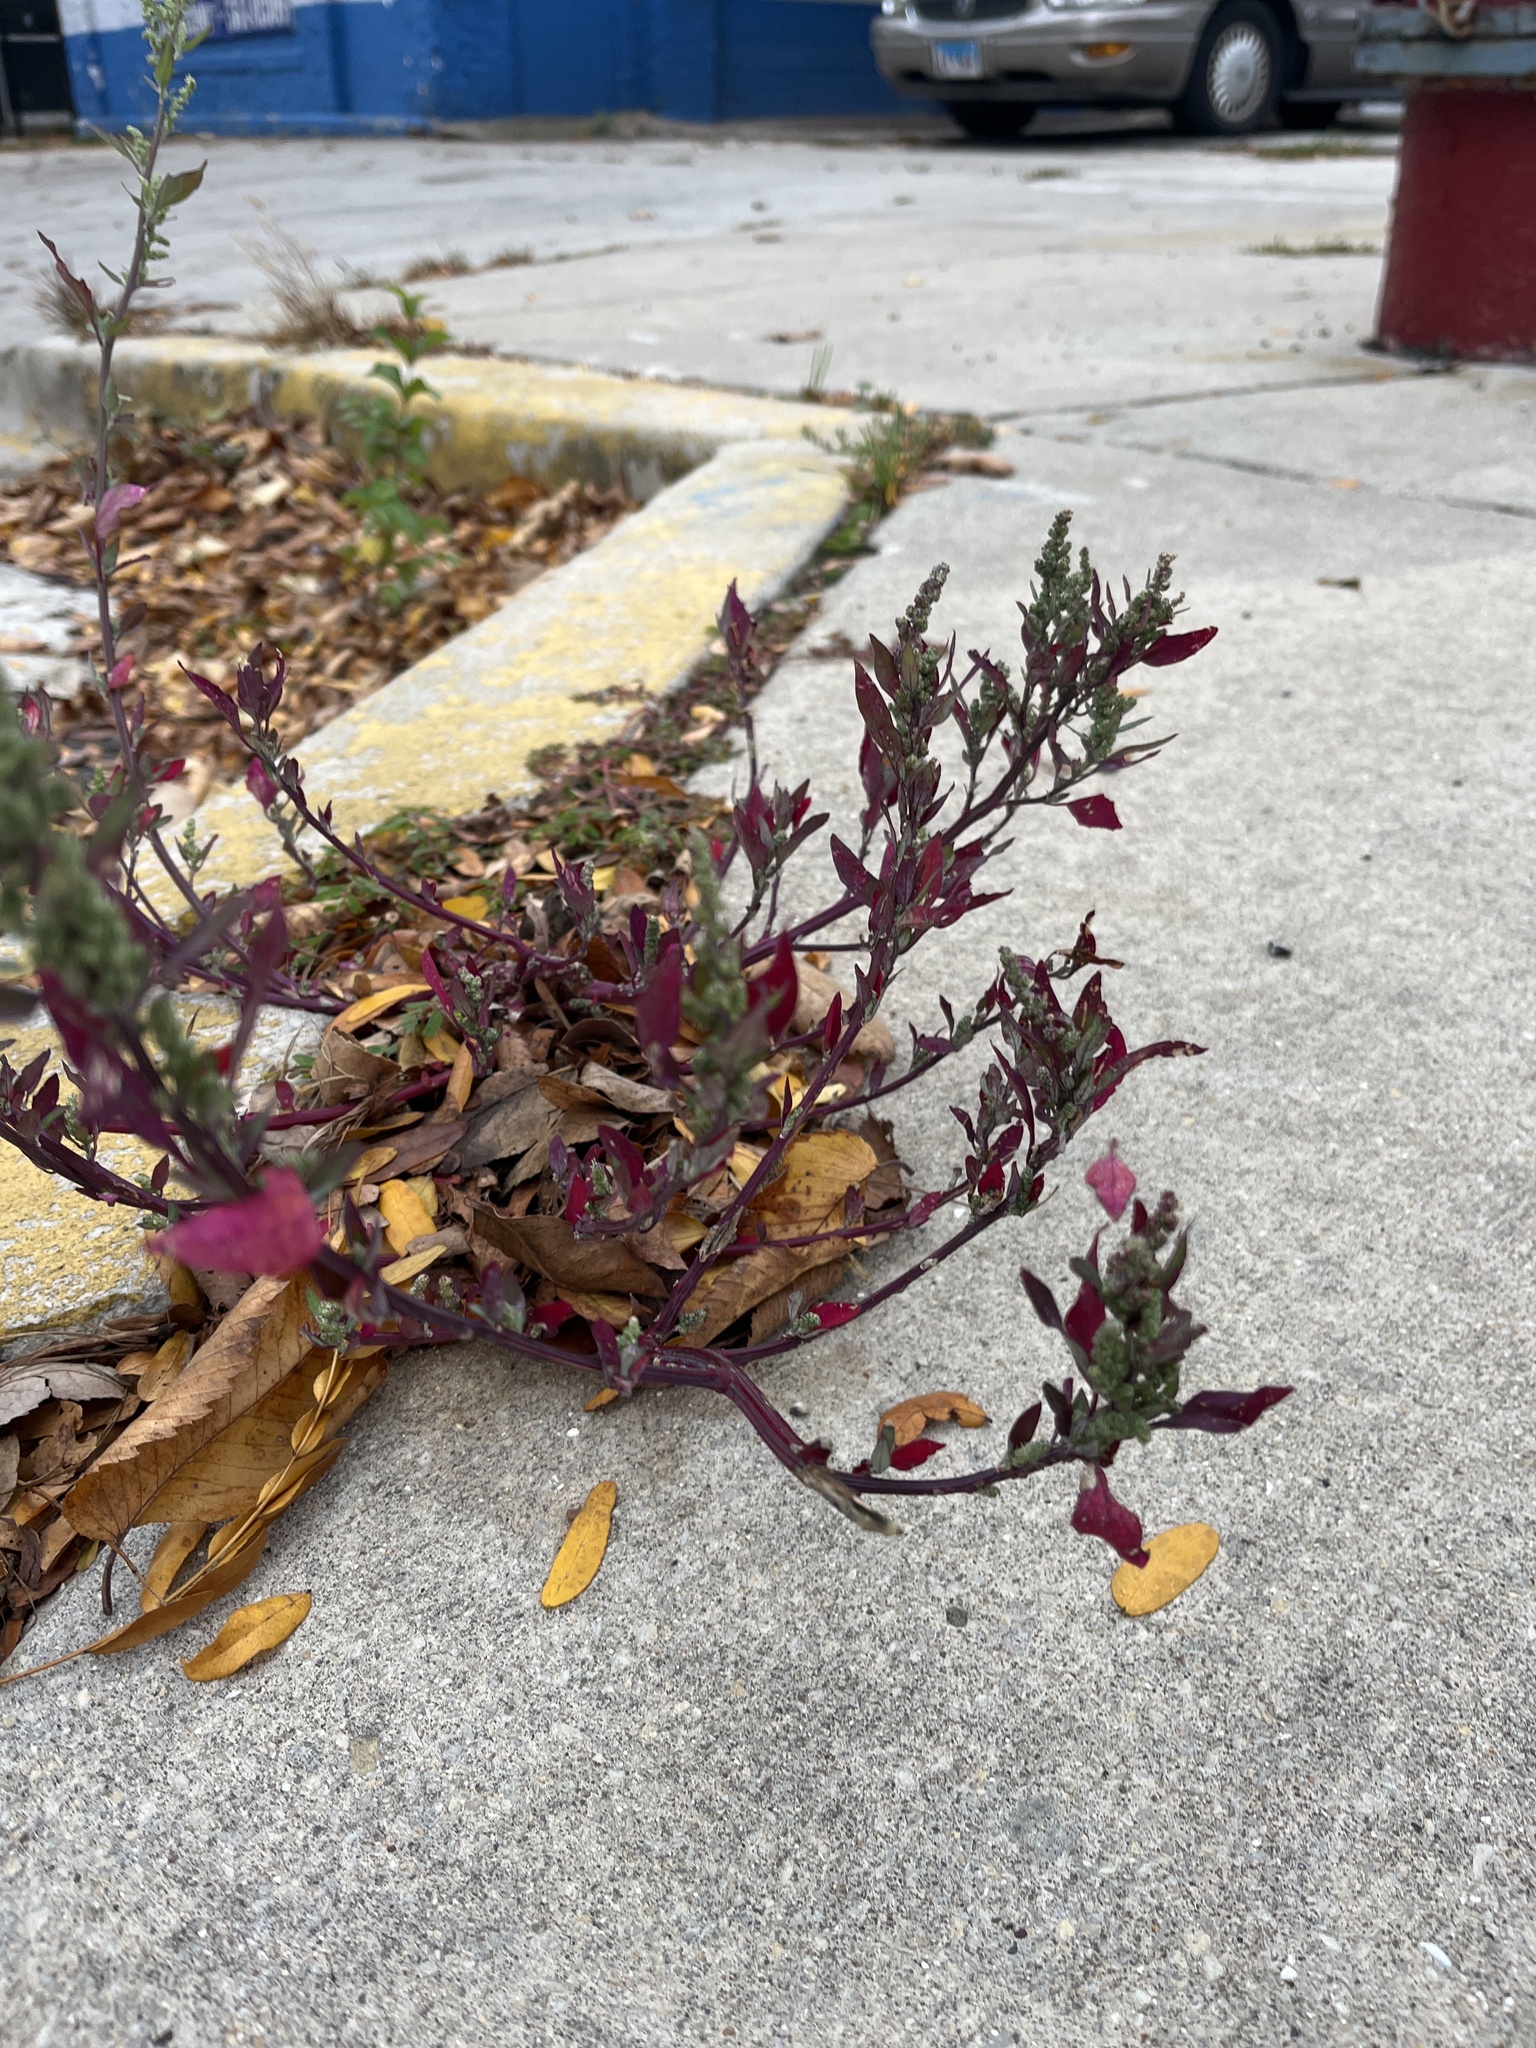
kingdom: Plantae
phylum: Tracheophyta
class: Magnoliopsida
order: Caryophyllales
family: Amaranthaceae
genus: Chenopodium
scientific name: Chenopodium album
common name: Fat-hen
